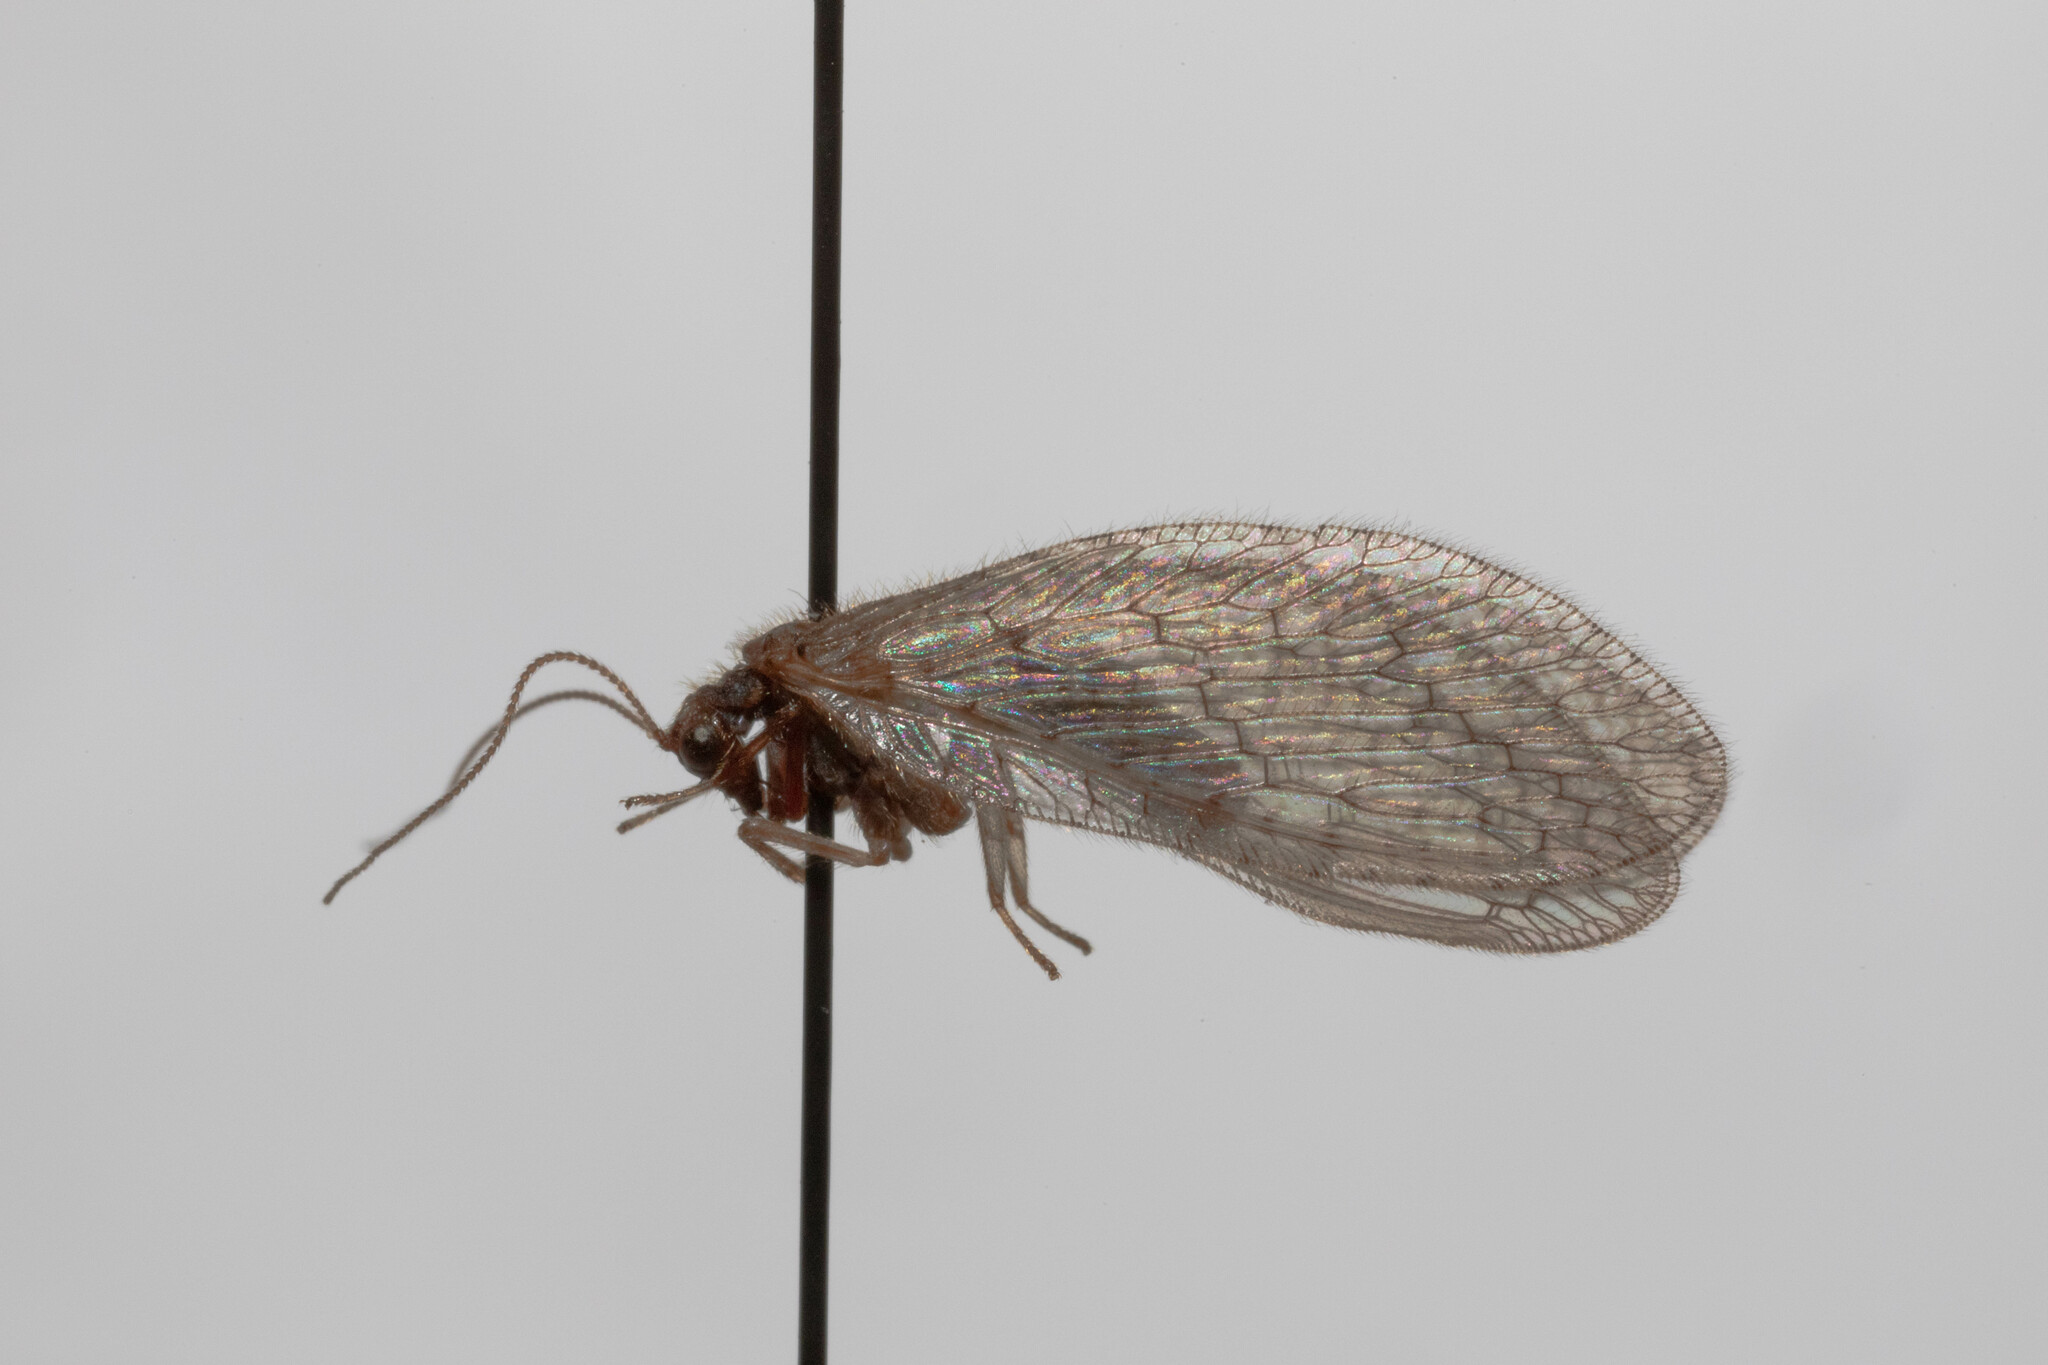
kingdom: Animalia
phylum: Arthropoda
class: Insecta
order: Neuroptera
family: Hemerobiidae
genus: Micromus
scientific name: Micromus posticus
